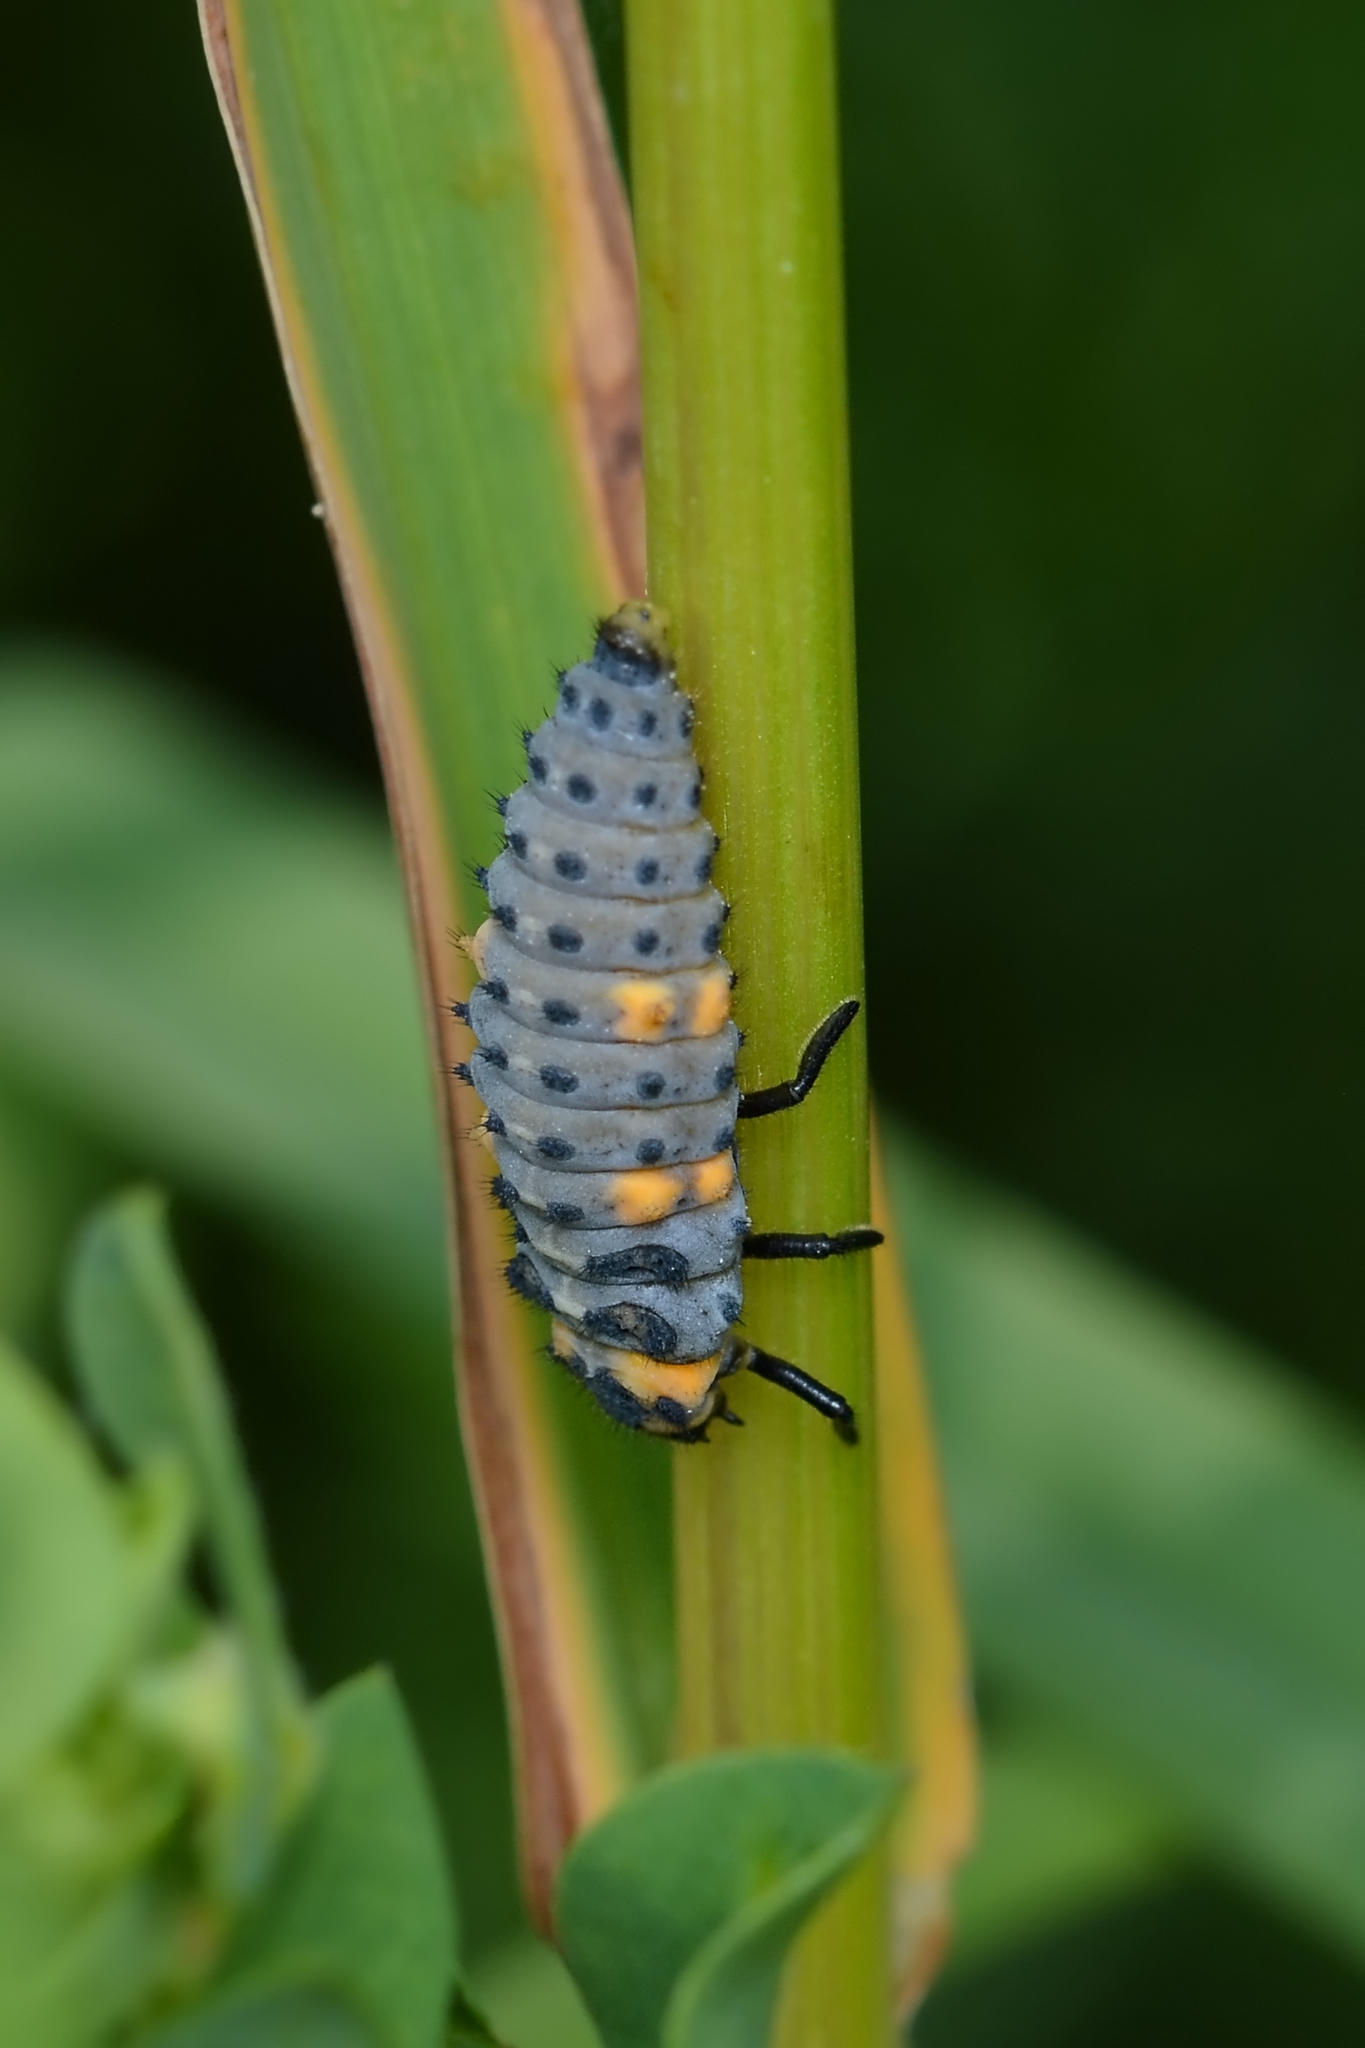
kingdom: Animalia
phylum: Arthropoda
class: Insecta
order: Coleoptera
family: Coccinellidae
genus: Coccinella
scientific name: Coccinella septempunctata
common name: Sevenspotted lady beetle
